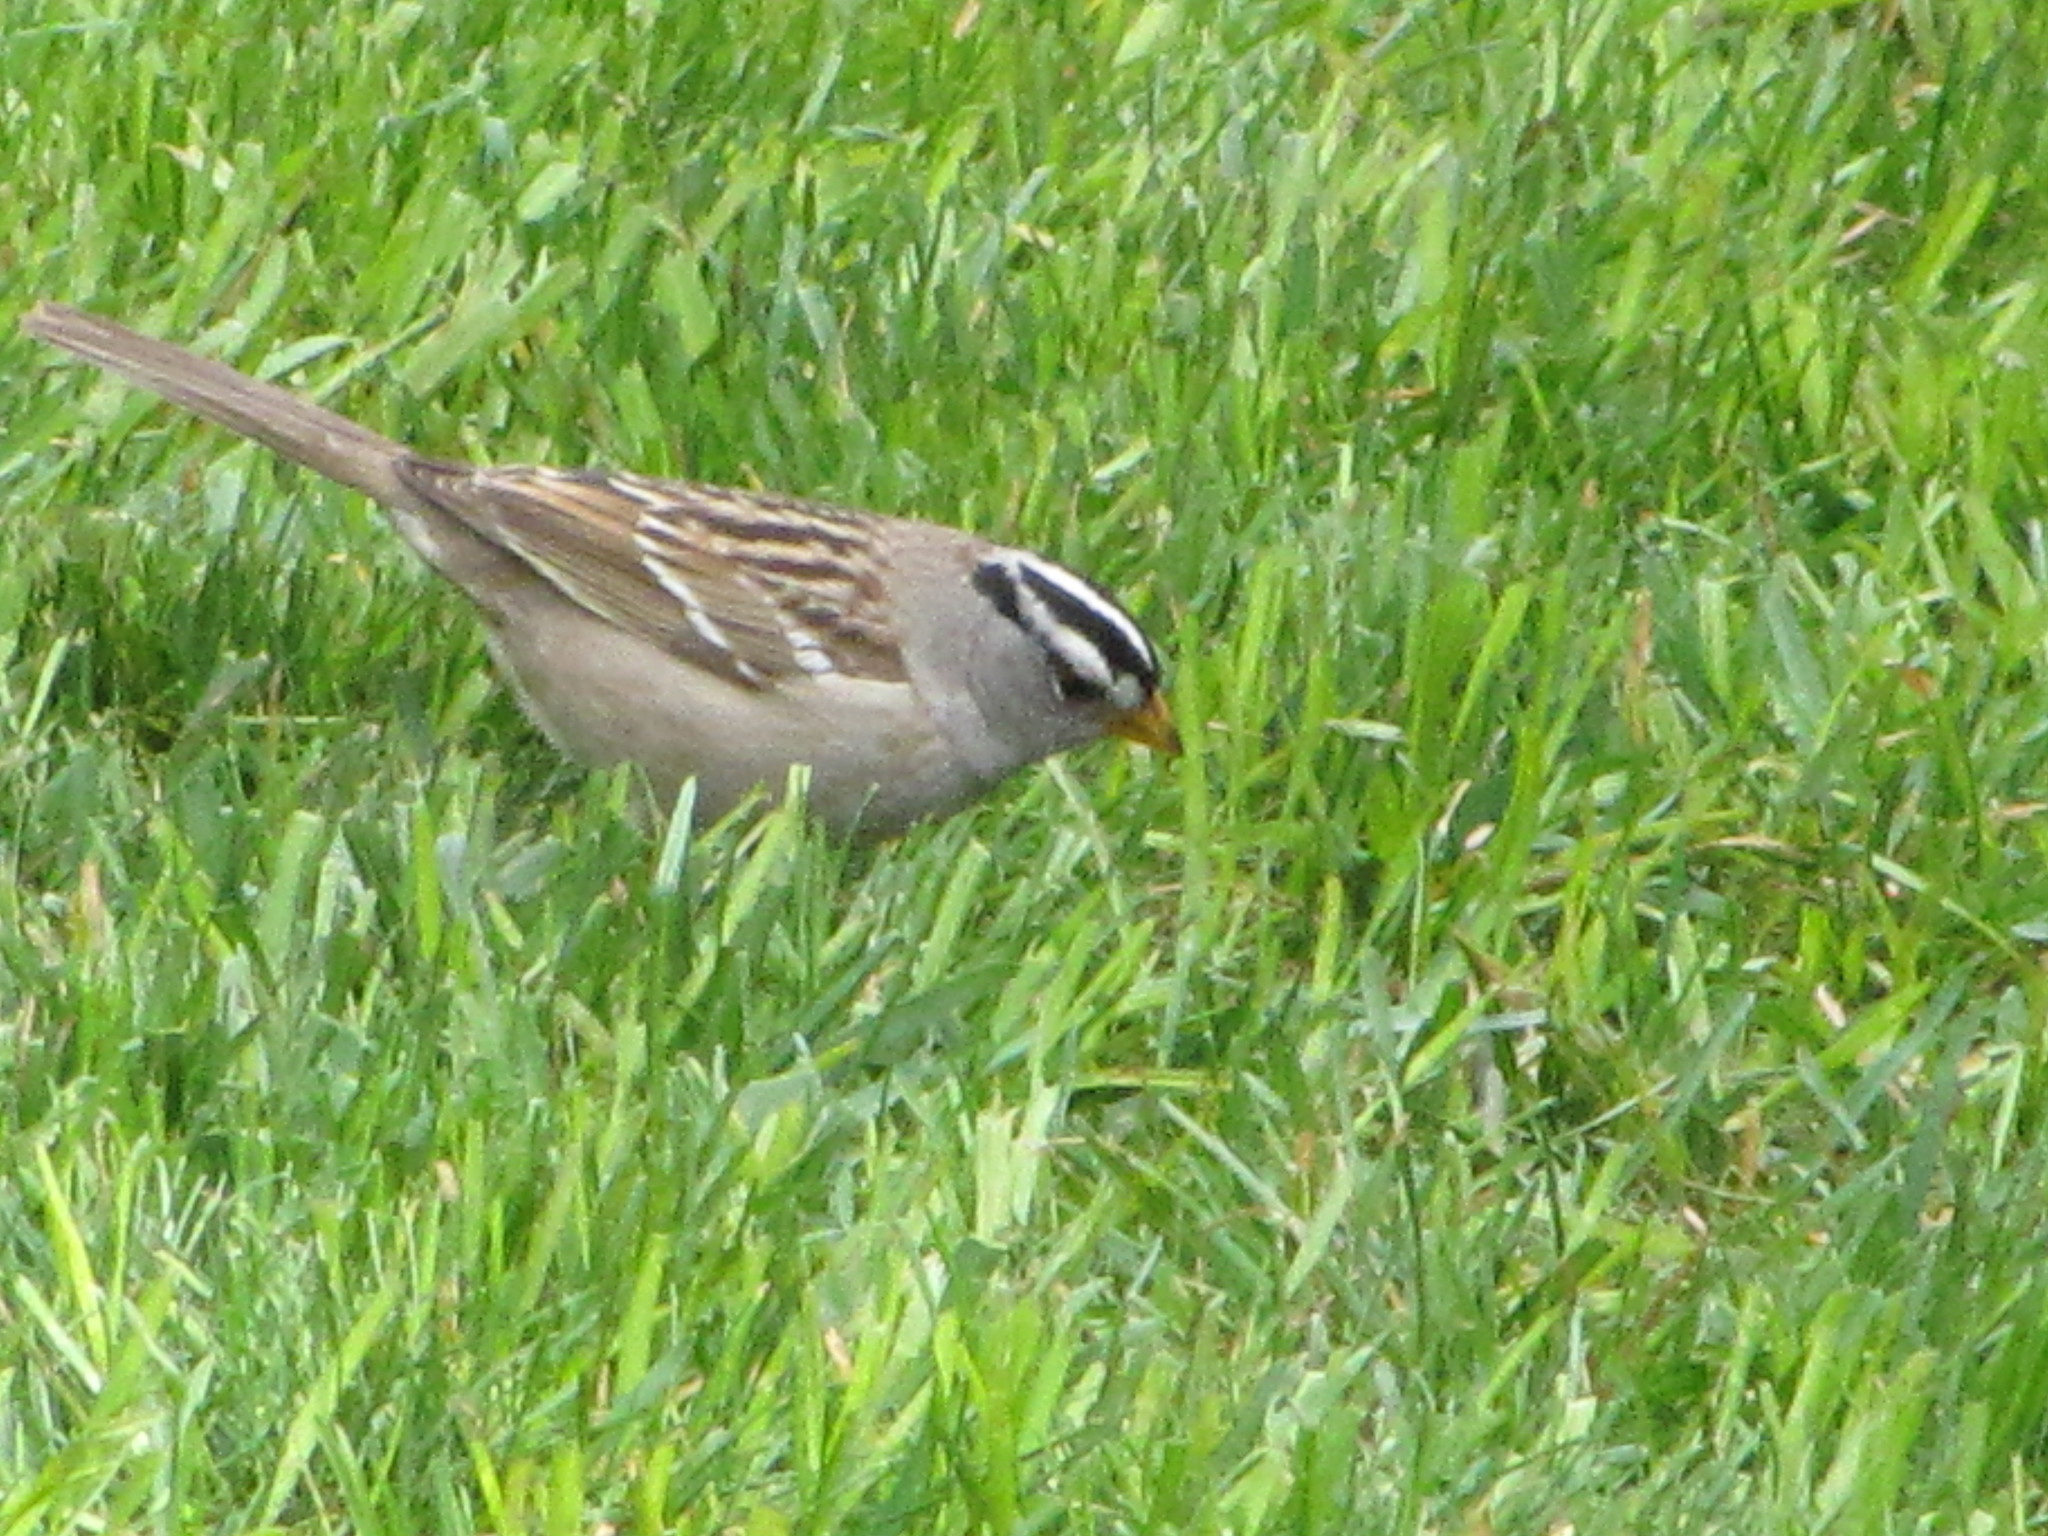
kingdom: Animalia
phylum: Chordata
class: Aves
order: Passeriformes
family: Passerellidae
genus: Zonotrichia
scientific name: Zonotrichia leucophrys
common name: White-crowned sparrow
